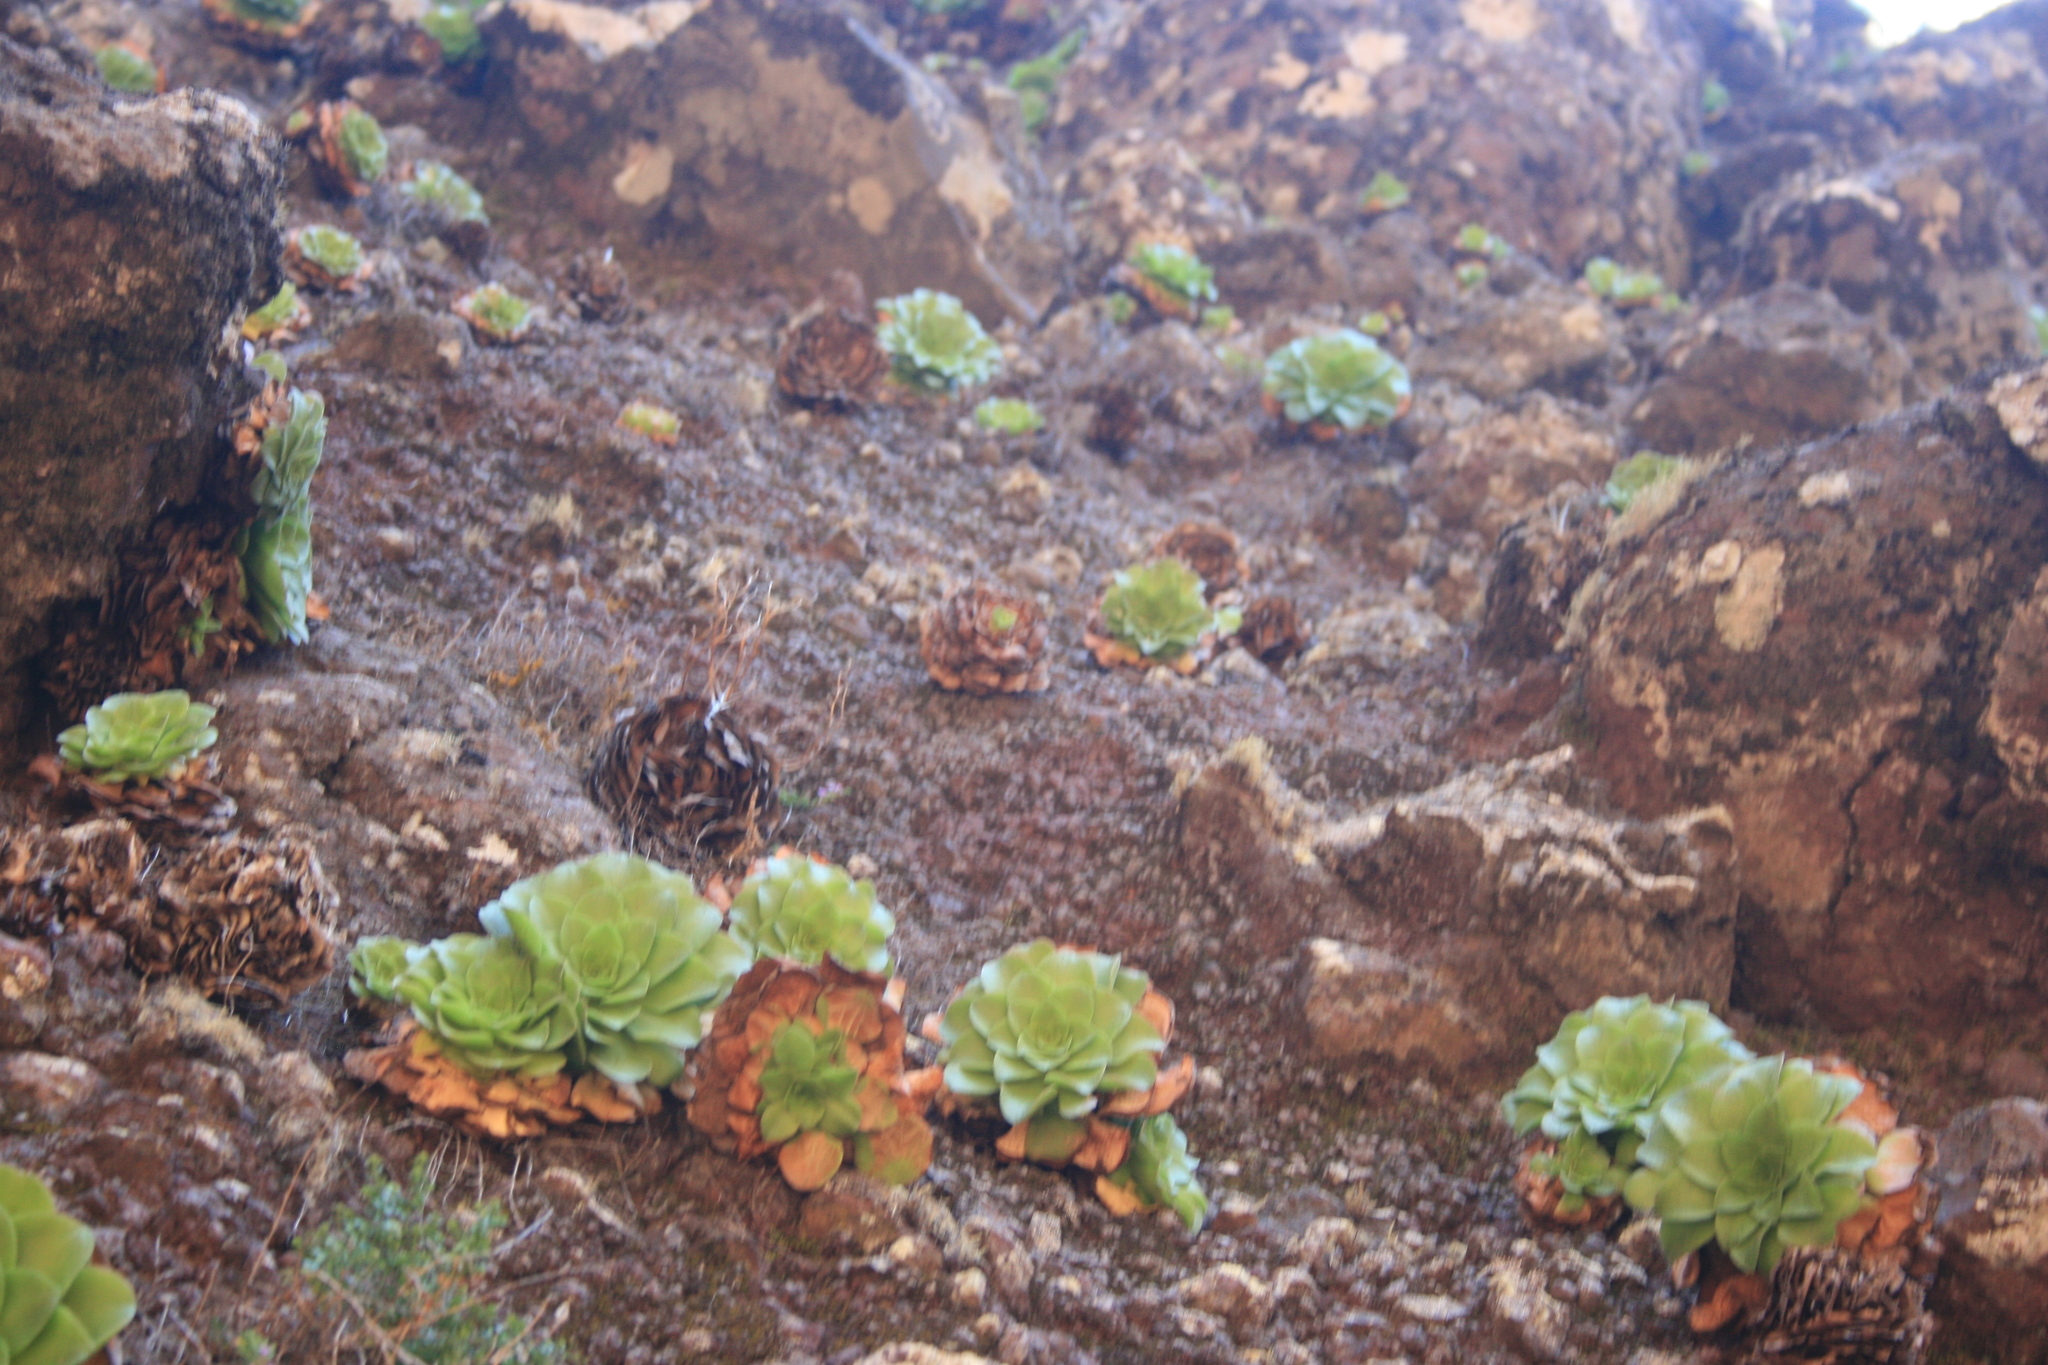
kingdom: Plantae
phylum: Tracheophyta
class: Magnoliopsida
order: Saxifragales
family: Crassulaceae
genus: Aeonium
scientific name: Aeonium glandulosum
